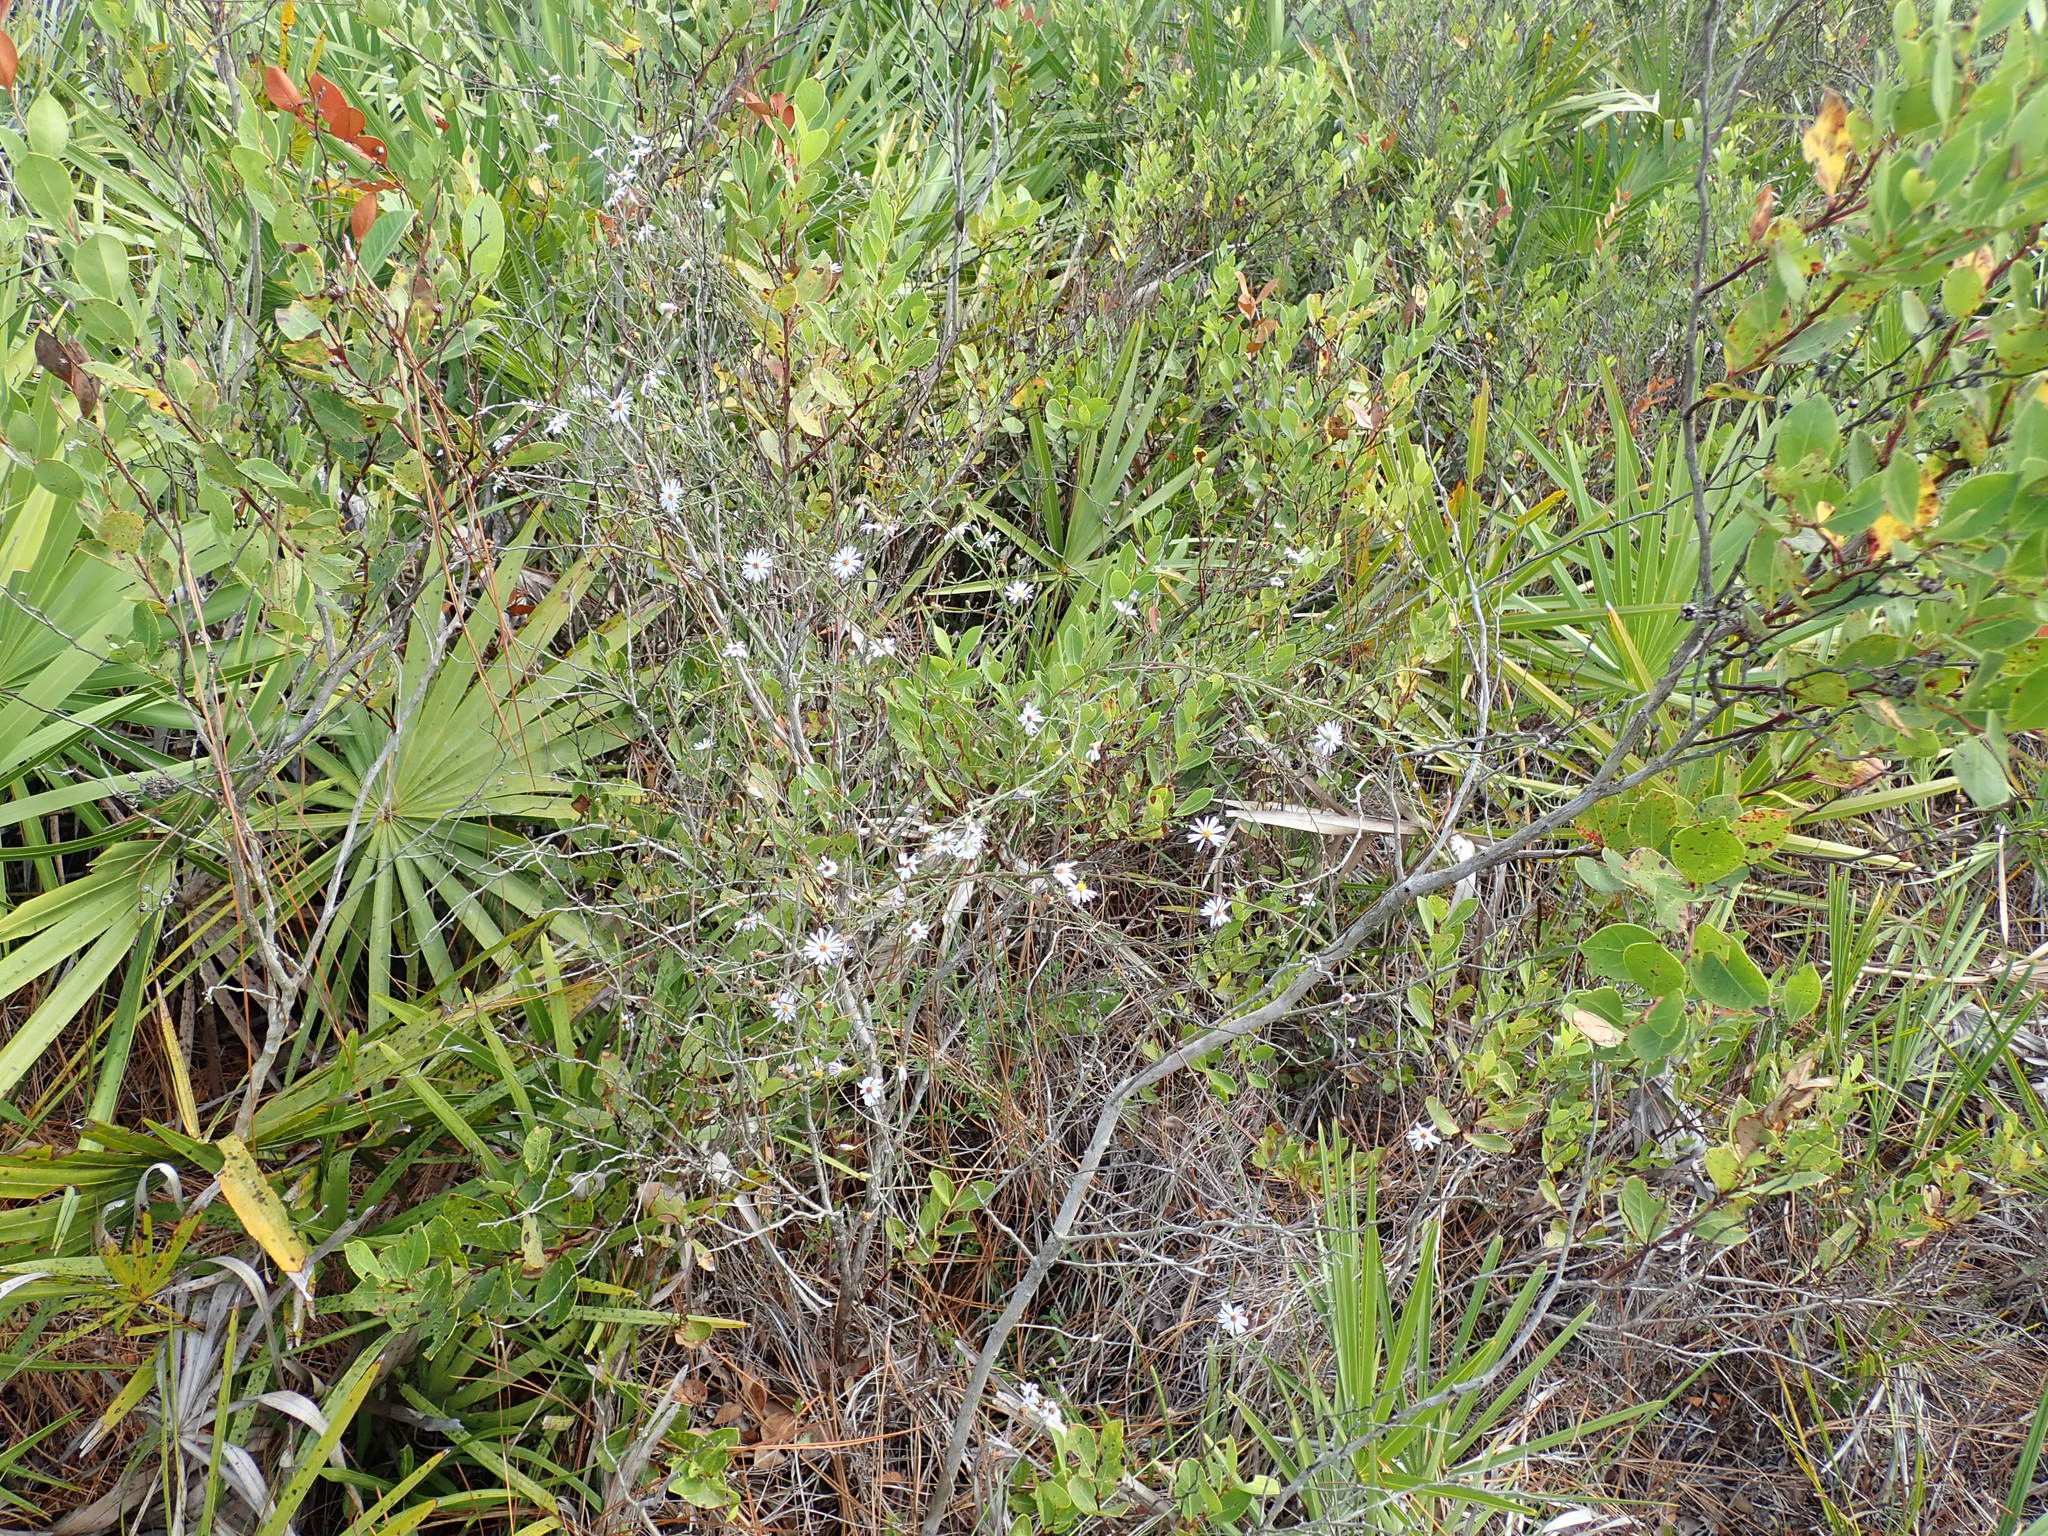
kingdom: Plantae
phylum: Tracheophyta
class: Magnoliopsida
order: Asterales
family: Asteraceae
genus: Symphyotrichum
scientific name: Symphyotrichum dumosum
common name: Bushy aster
